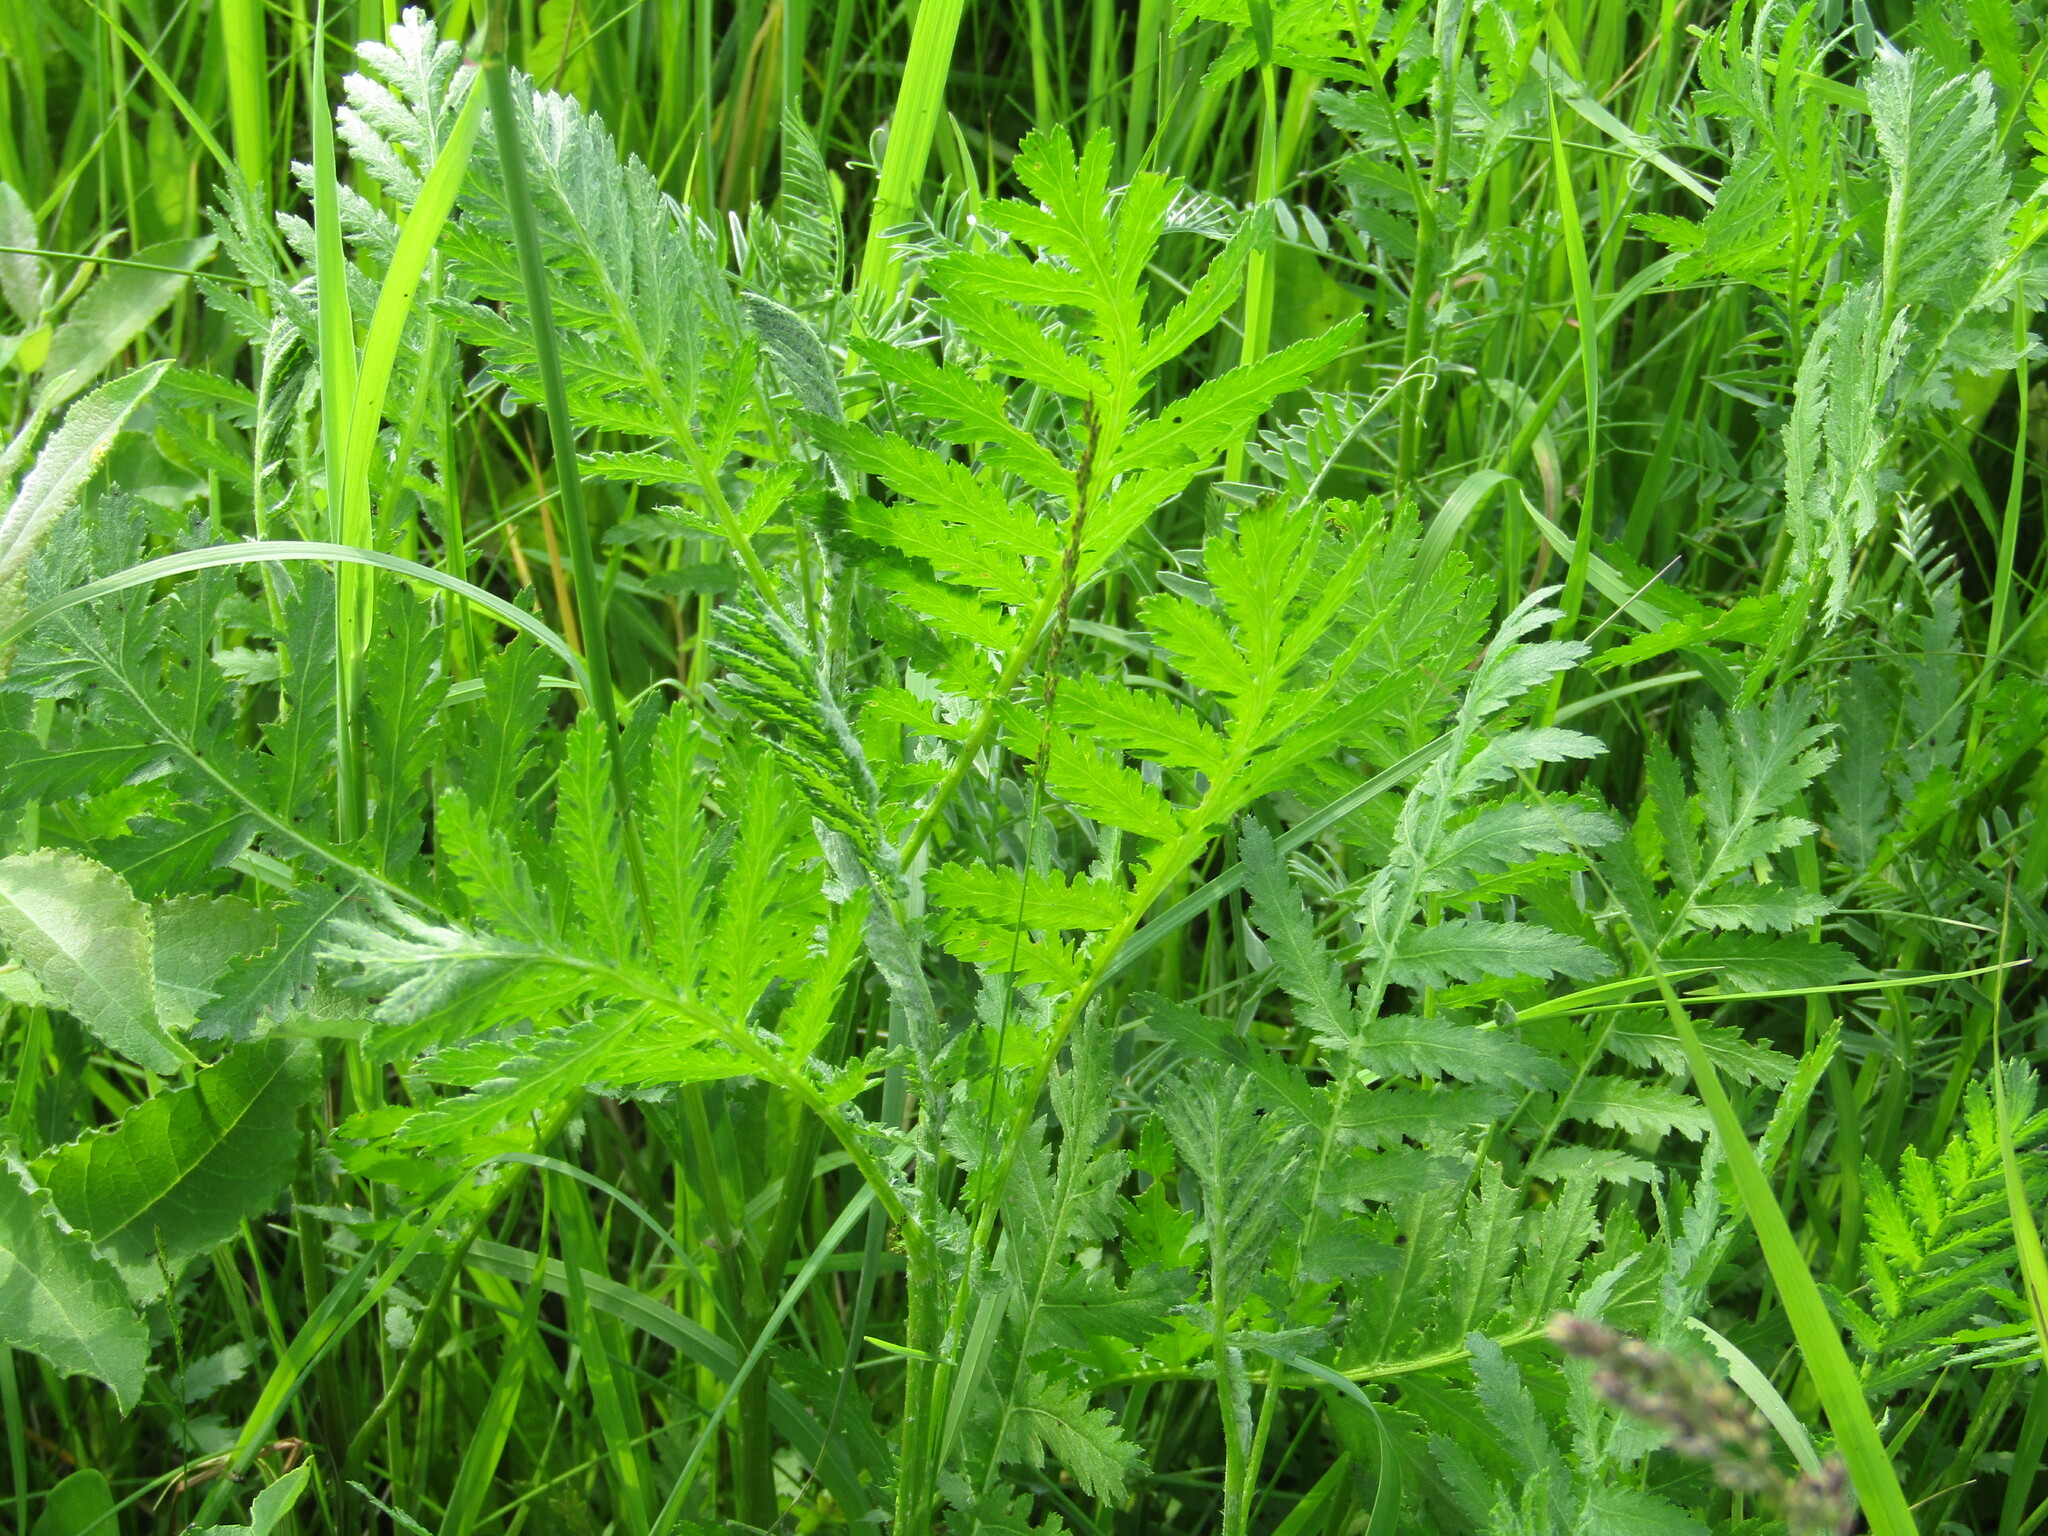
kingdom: Plantae
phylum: Tracheophyta
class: Magnoliopsida
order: Asterales
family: Asteraceae
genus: Tanacetum
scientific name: Tanacetum vulgare
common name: Common tansy
